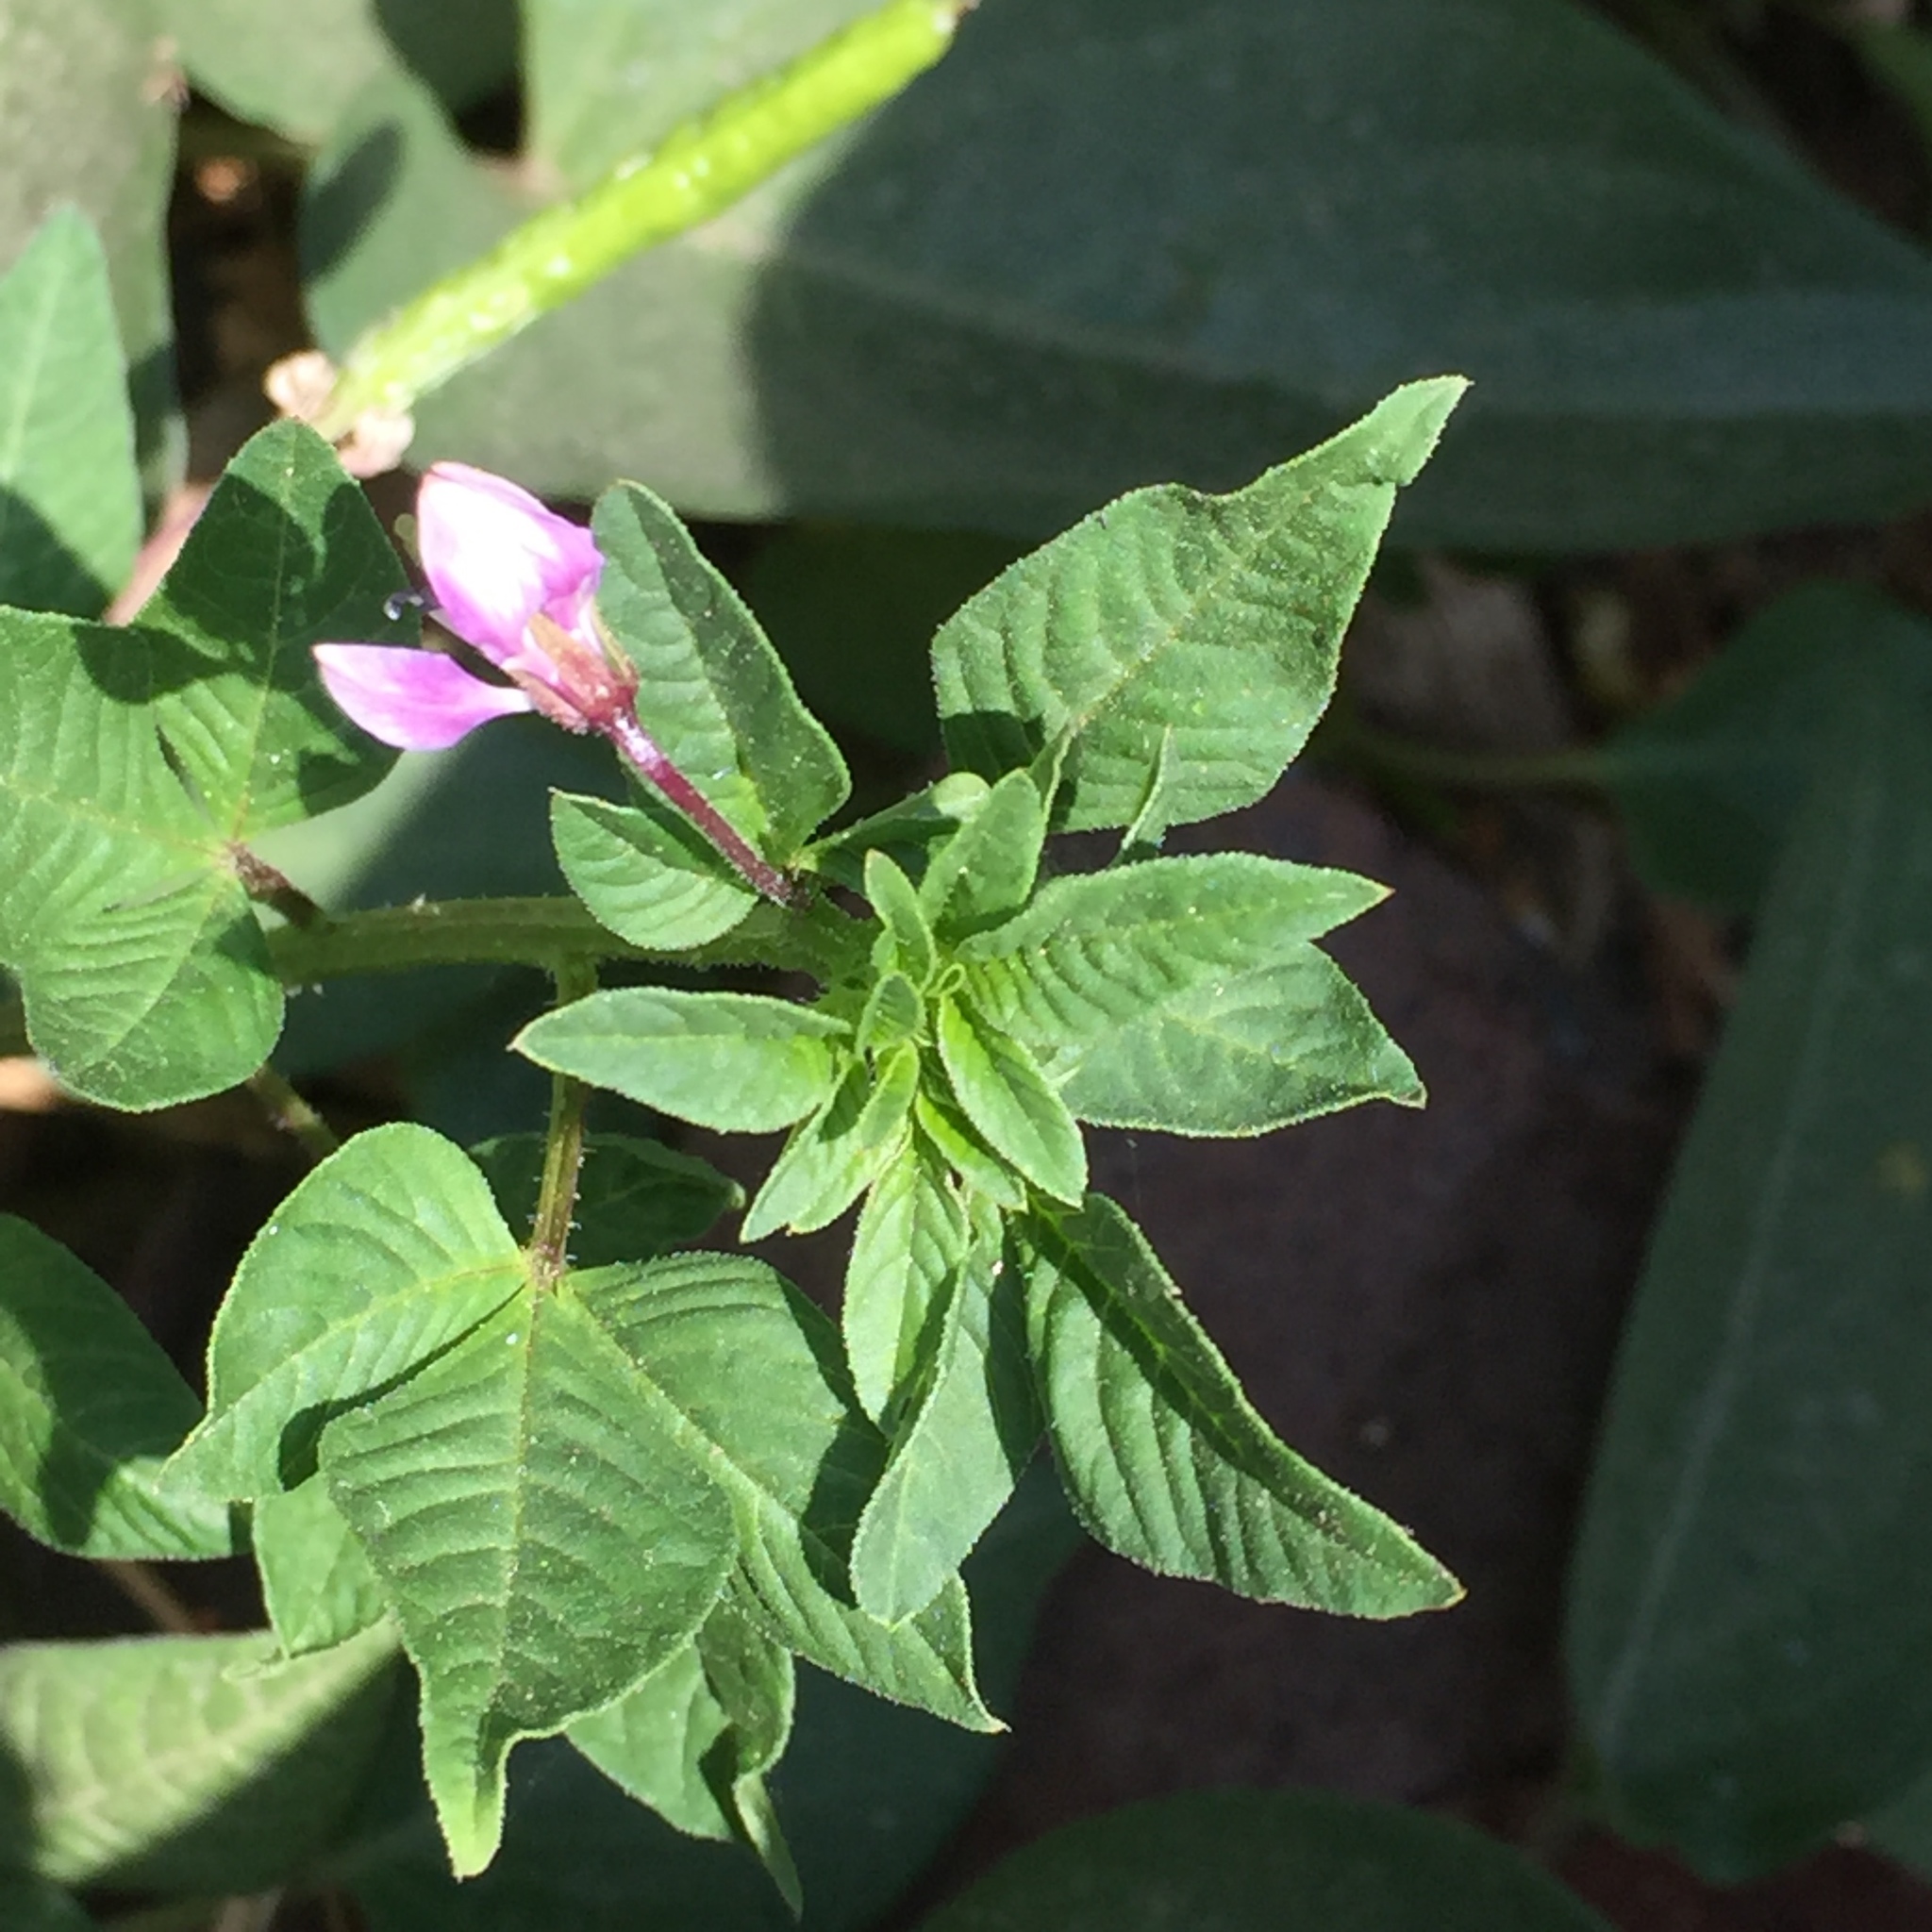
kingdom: Plantae
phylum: Tracheophyta
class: Magnoliopsida
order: Brassicales
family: Cleomaceae
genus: Sieruela
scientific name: Sieruela rutidosperma
